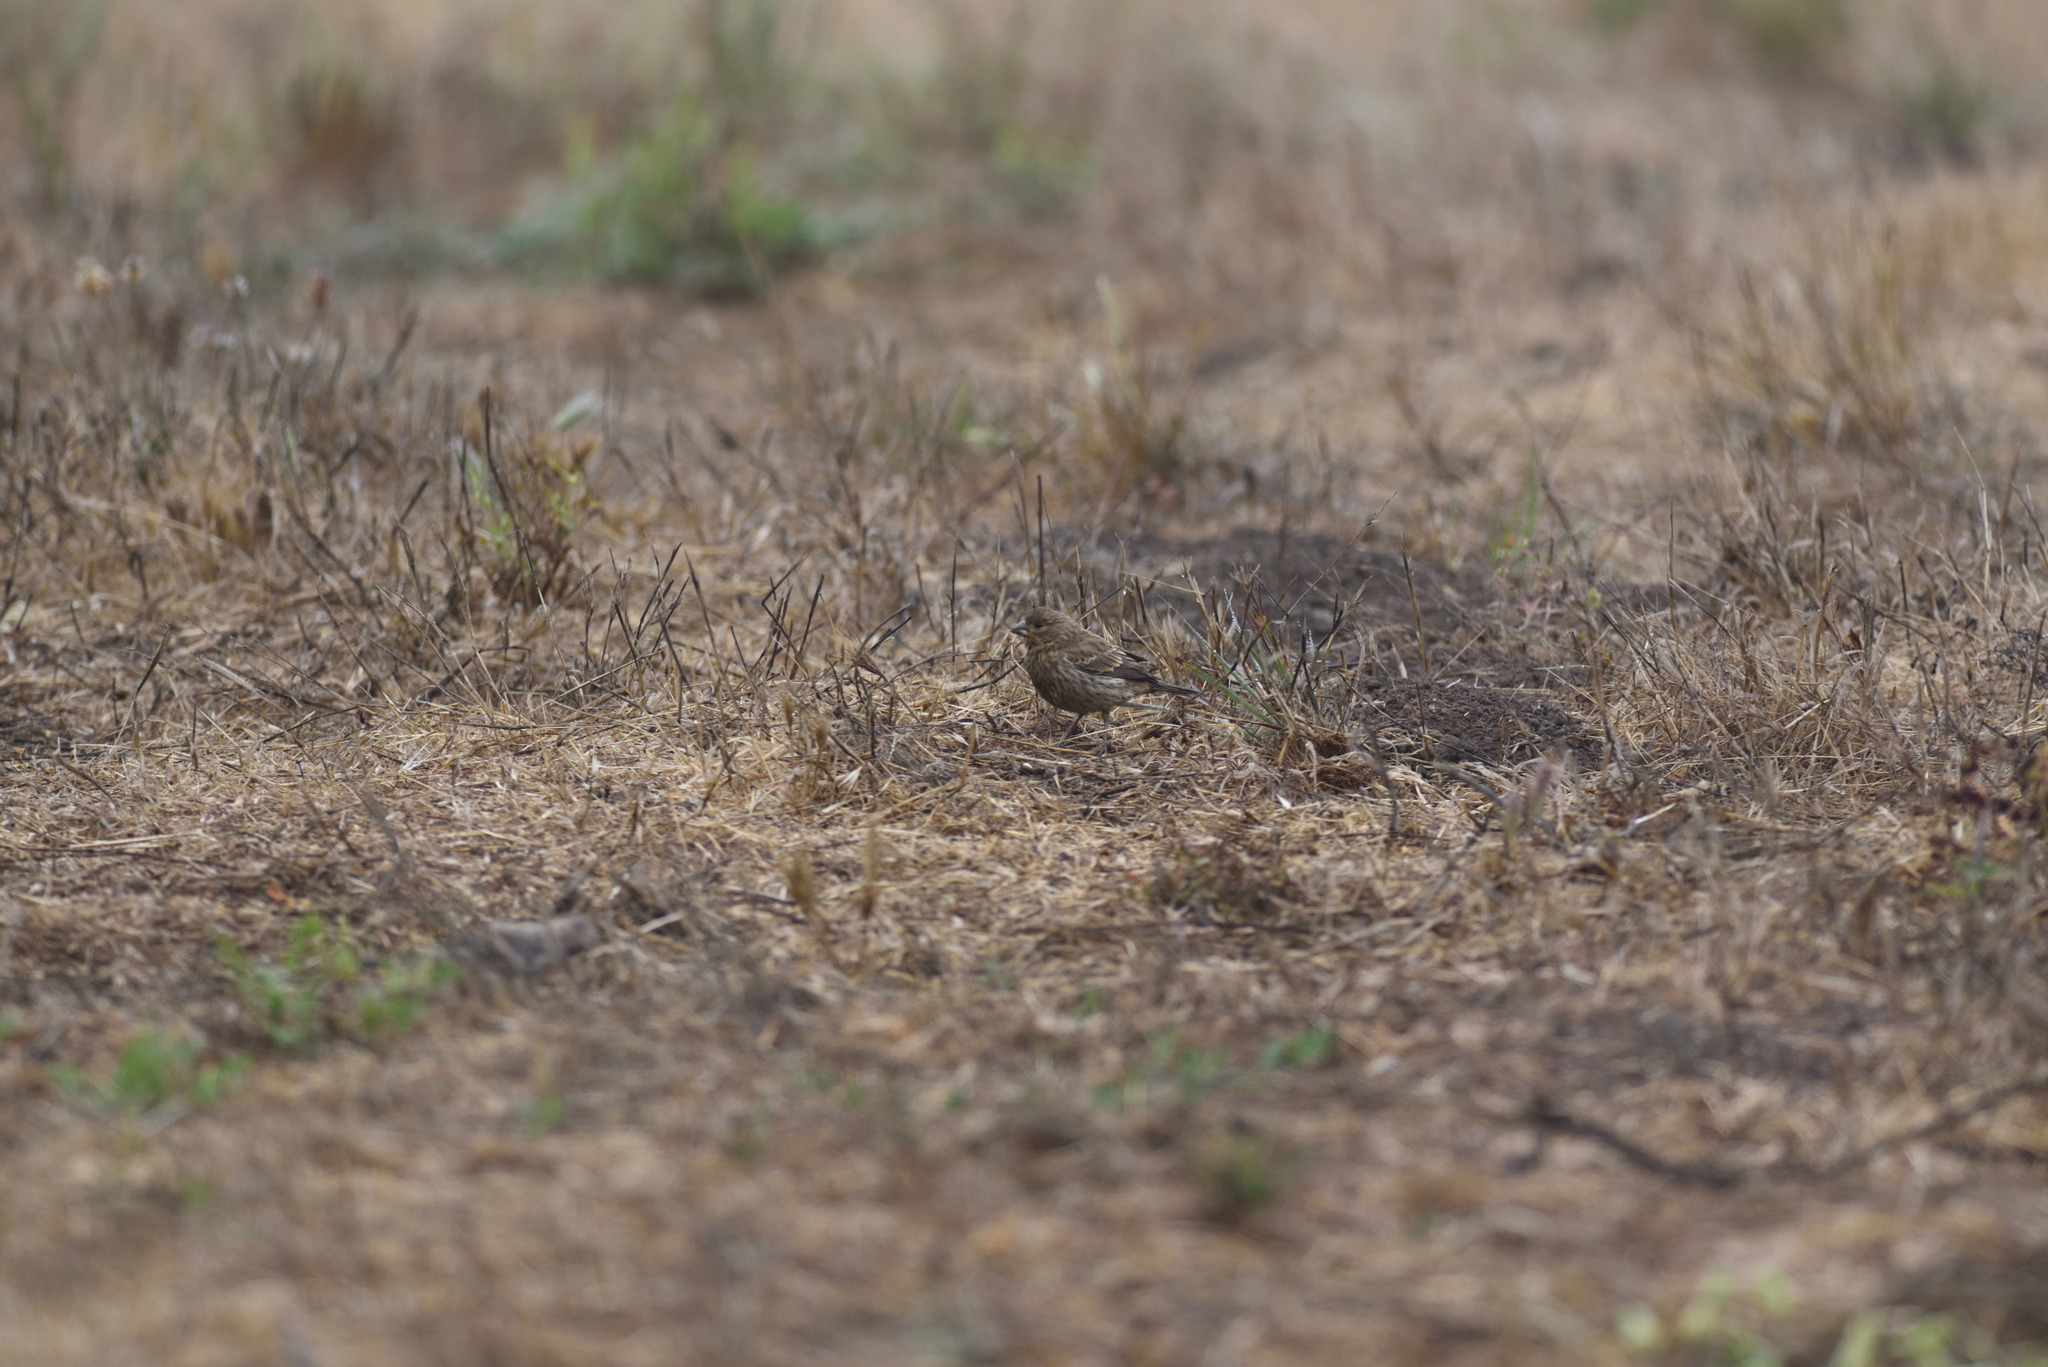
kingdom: Animalia
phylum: Chordata
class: Aves
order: Passeriformes
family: Fringillidae
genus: Haemorhous
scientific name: Haemorhous mexicanus
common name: House finch
